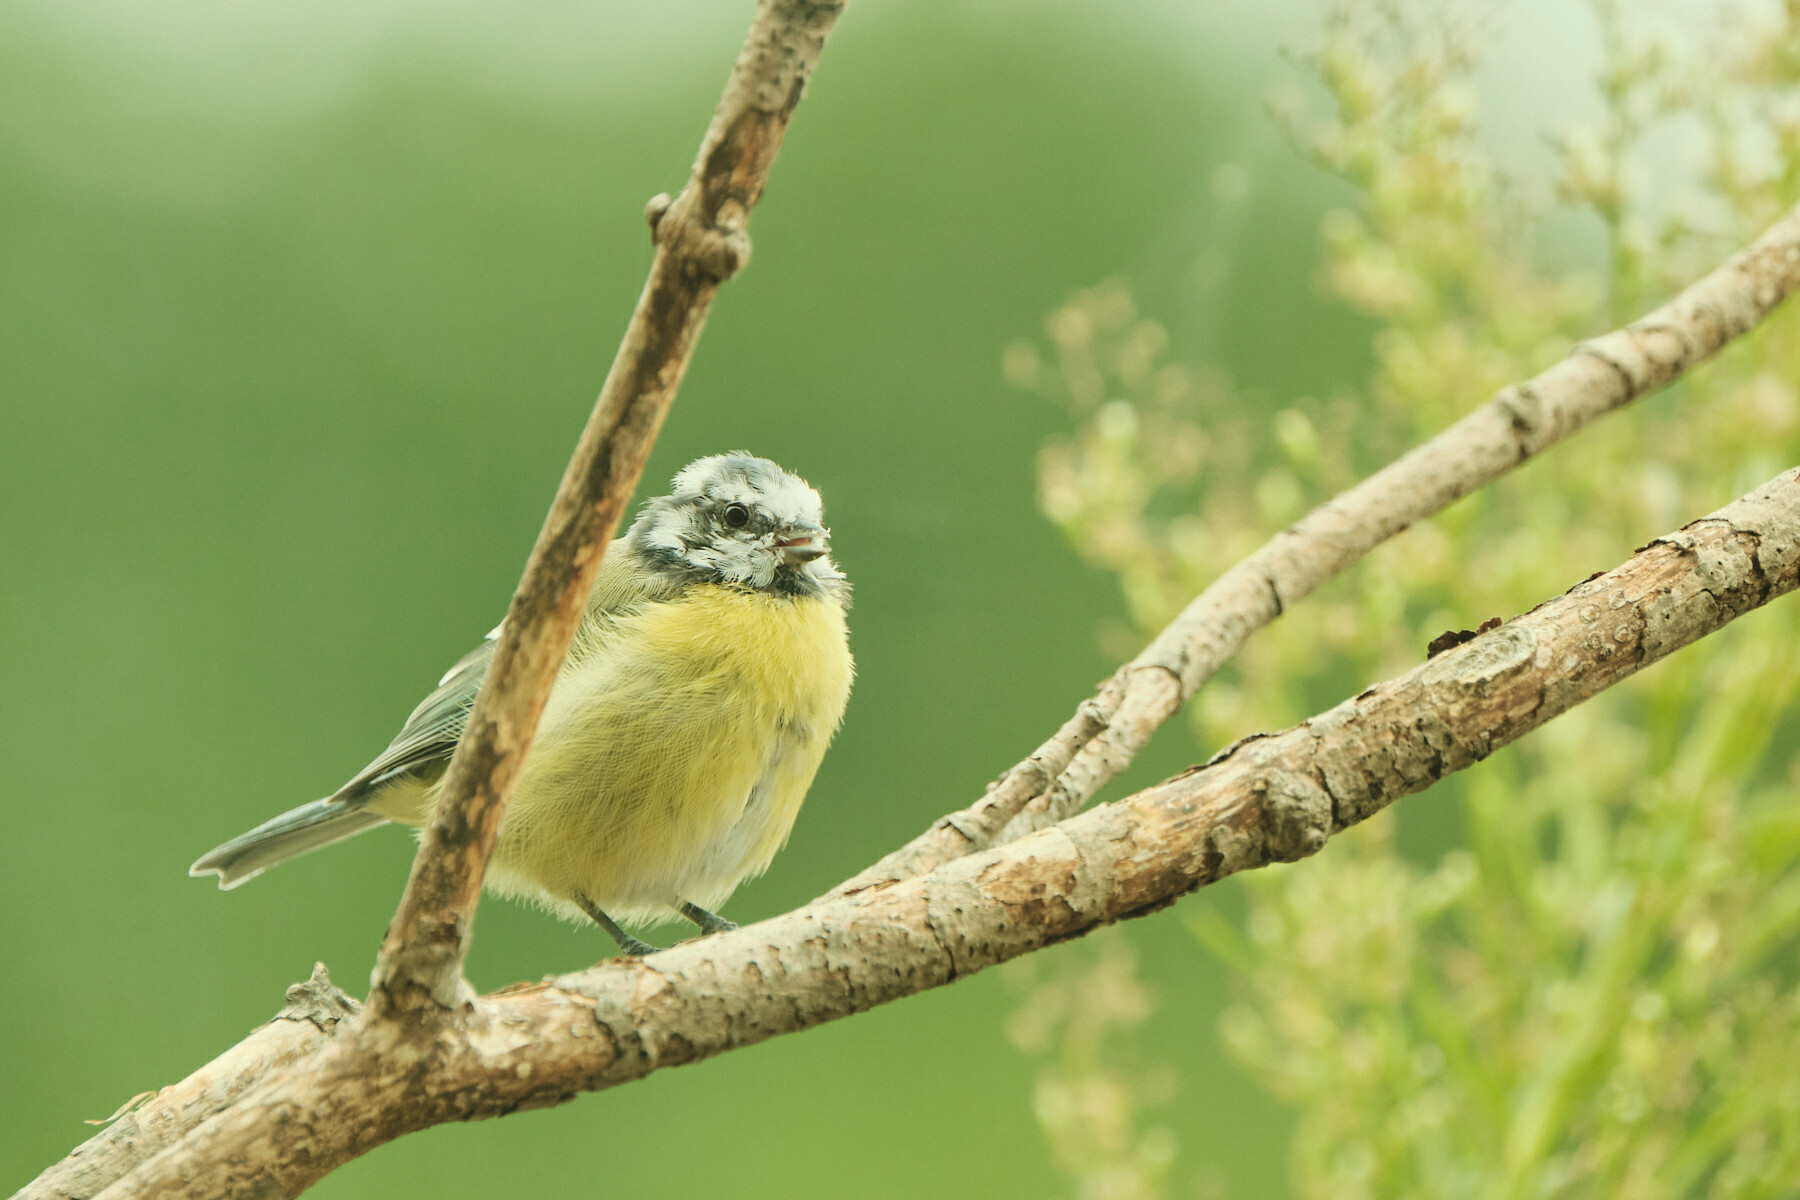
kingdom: Animalia
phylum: Chordata
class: Aves
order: Passeriformes
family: Paridae
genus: Cyanistes
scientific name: Cyanistes caeruleus
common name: Eurasian blue tit
